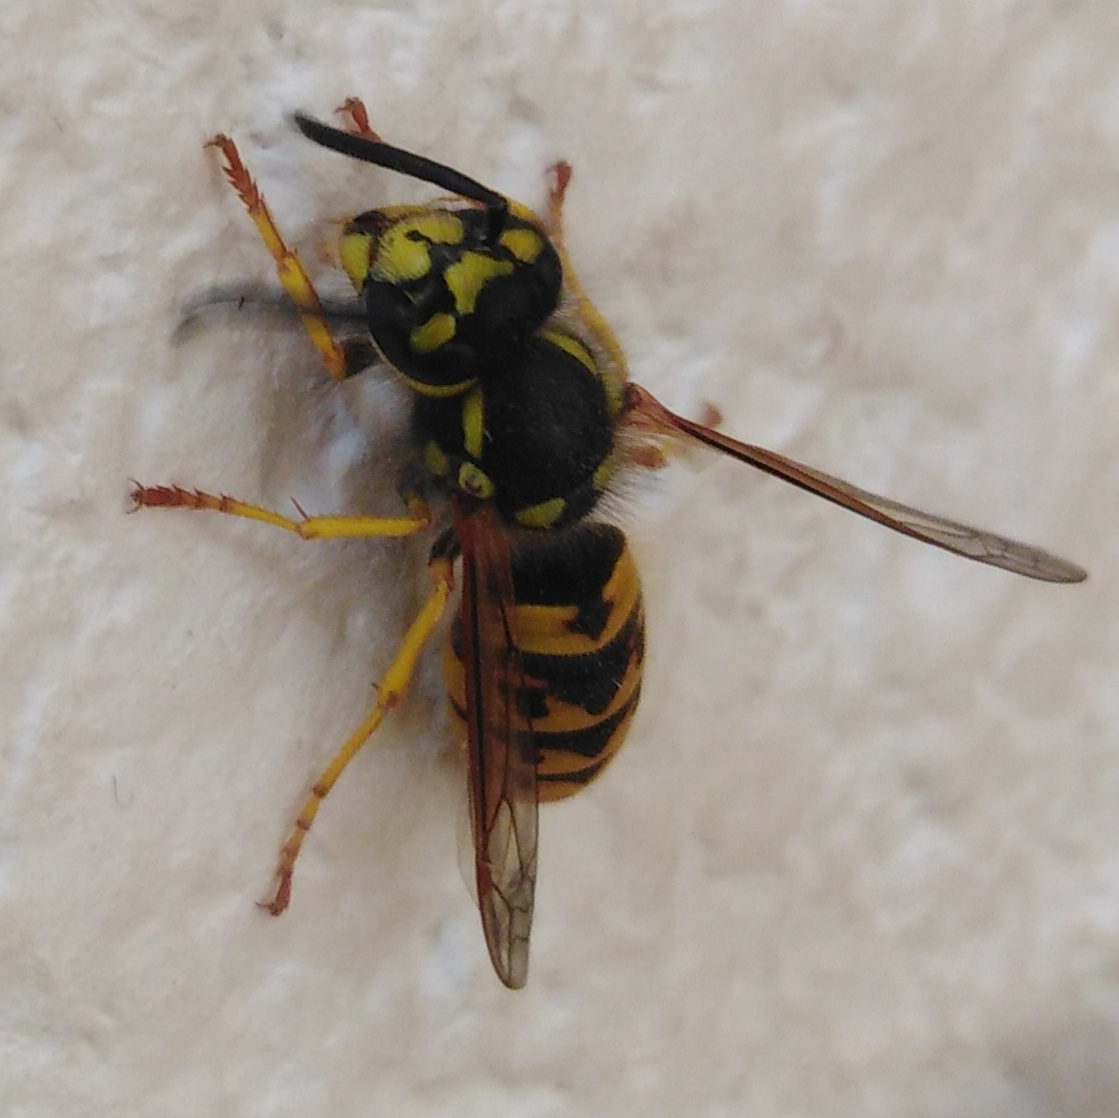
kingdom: Animalia
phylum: Arthropoda
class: Insecta
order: Hymenoptera
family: Vespidae
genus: Vespula
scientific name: Vespula germanica
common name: German wasp
